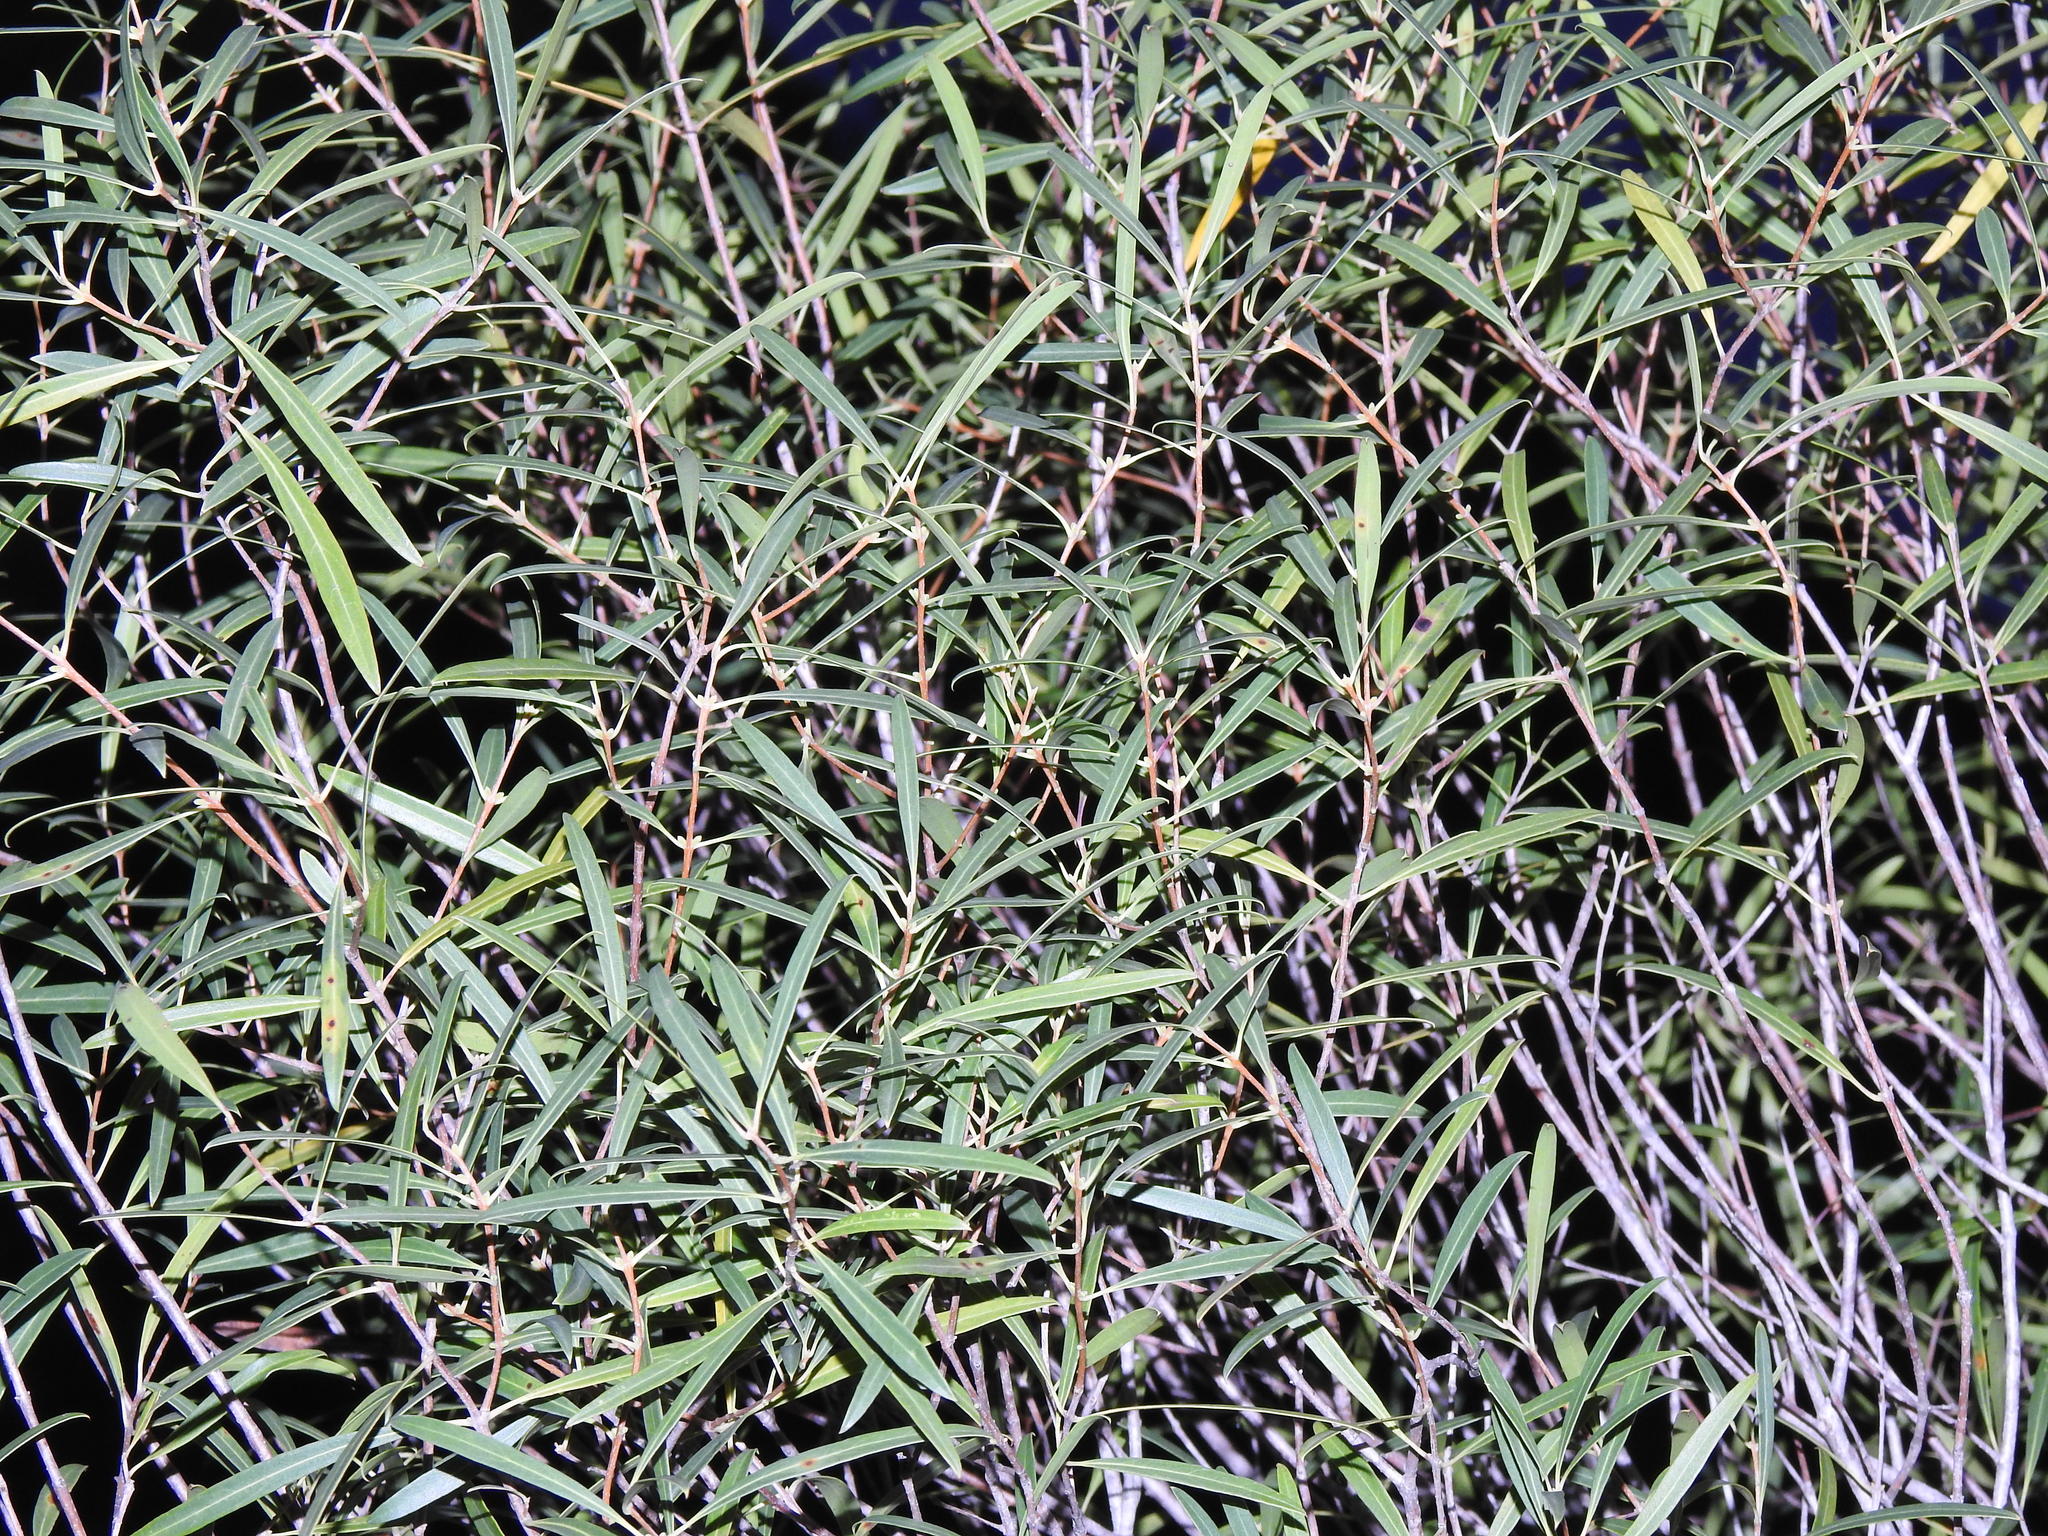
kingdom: Plantae
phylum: Tracheophyta
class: Magnoliopsida
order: Lamiales
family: Oleaceae
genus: Phillyrea
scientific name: Phillyrea angustifolia
